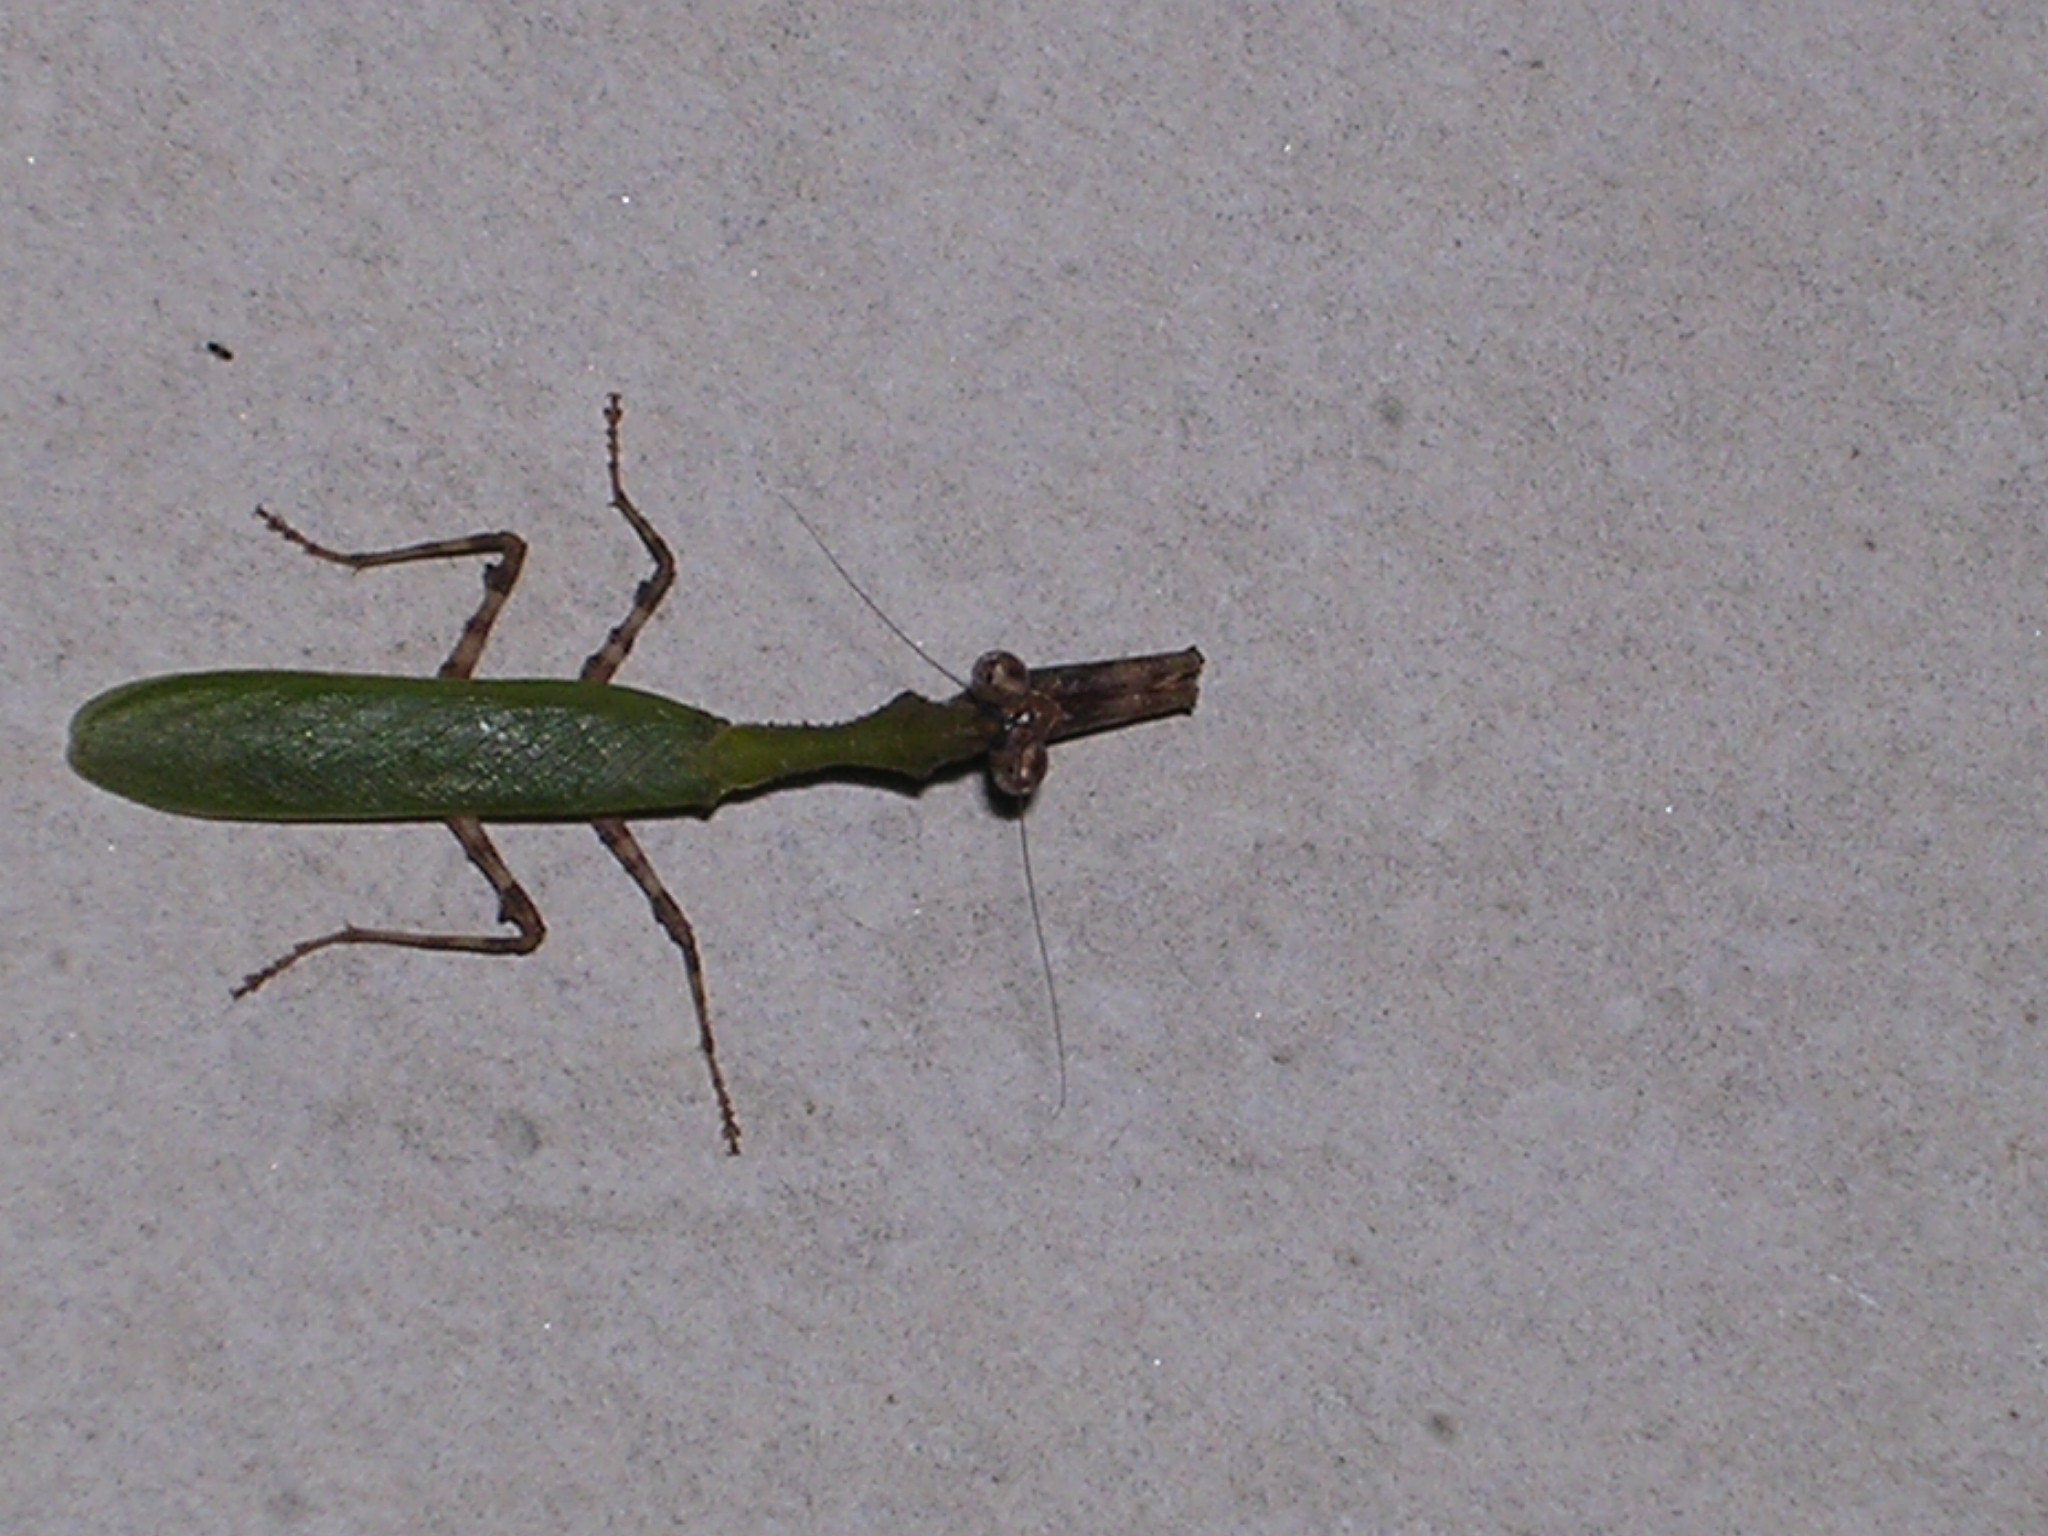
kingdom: Animalia
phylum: Arthropoda
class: Insecta
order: Mantodea
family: Hymenopodidae
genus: Psychomantis
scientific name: Psychomantis borneensis
